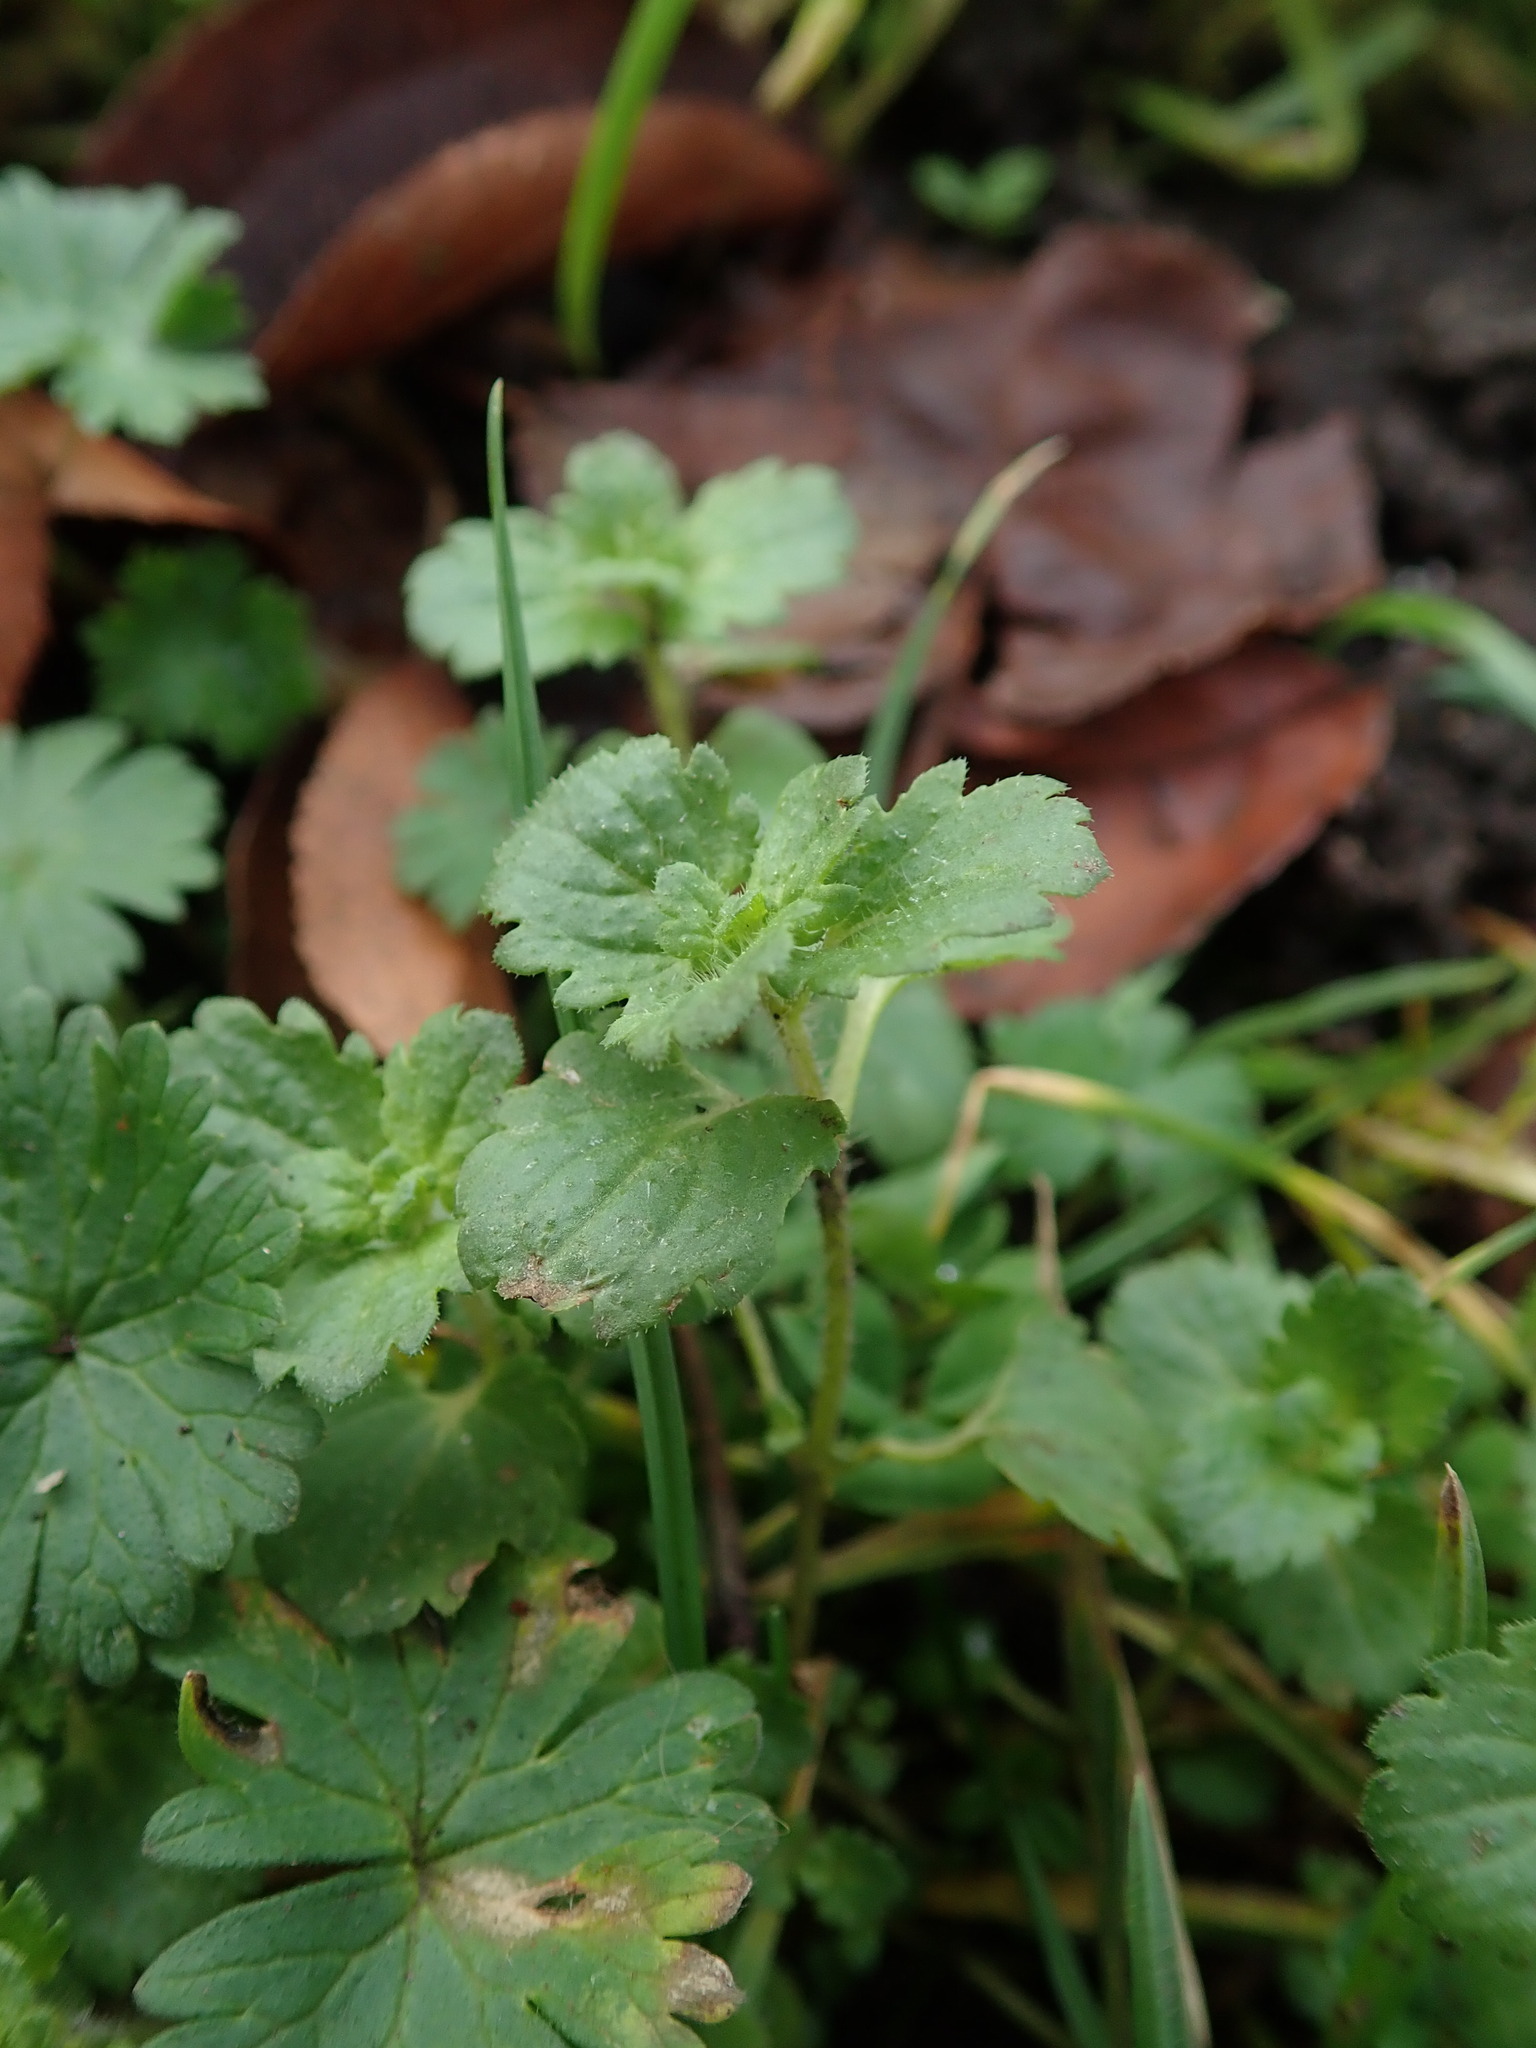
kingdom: Plantae
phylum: Tracheophyta
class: Magnoliopsida
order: Lamiales
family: Plantaginaceae
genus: Veronica
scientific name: Veronica persica
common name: Common field-speedwell
